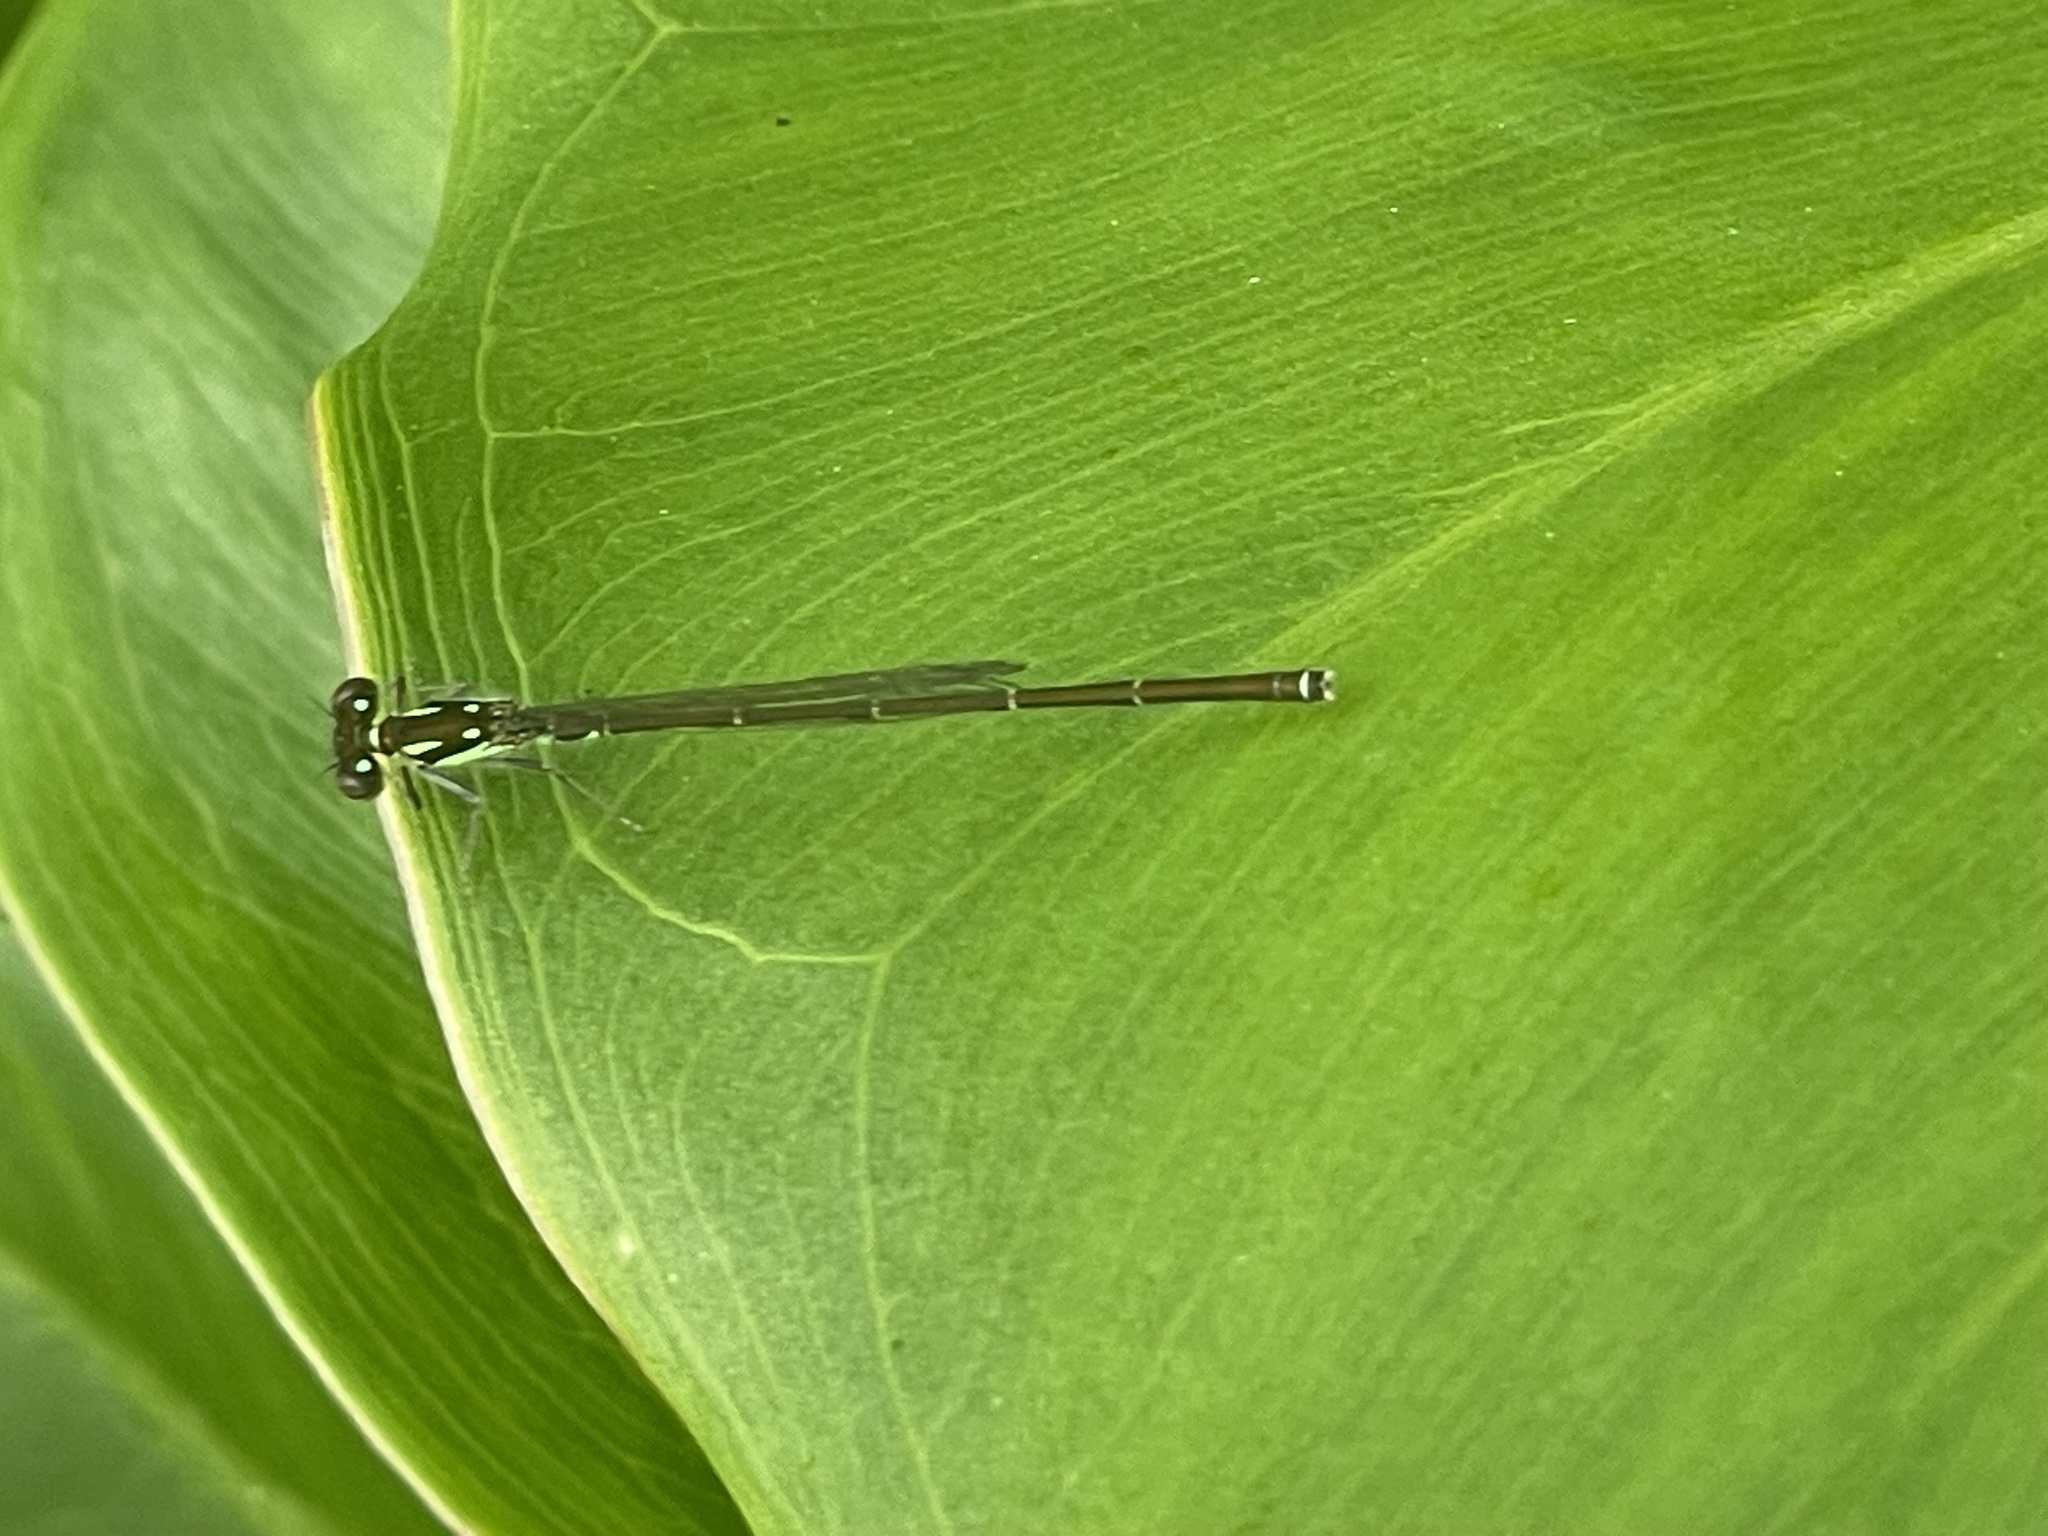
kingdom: Animalia
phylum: Arthropoda
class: Insecta
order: Odonata
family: Coenagrionidae
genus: Ischnura
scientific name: Ischnura posita
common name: Fragile forktail
